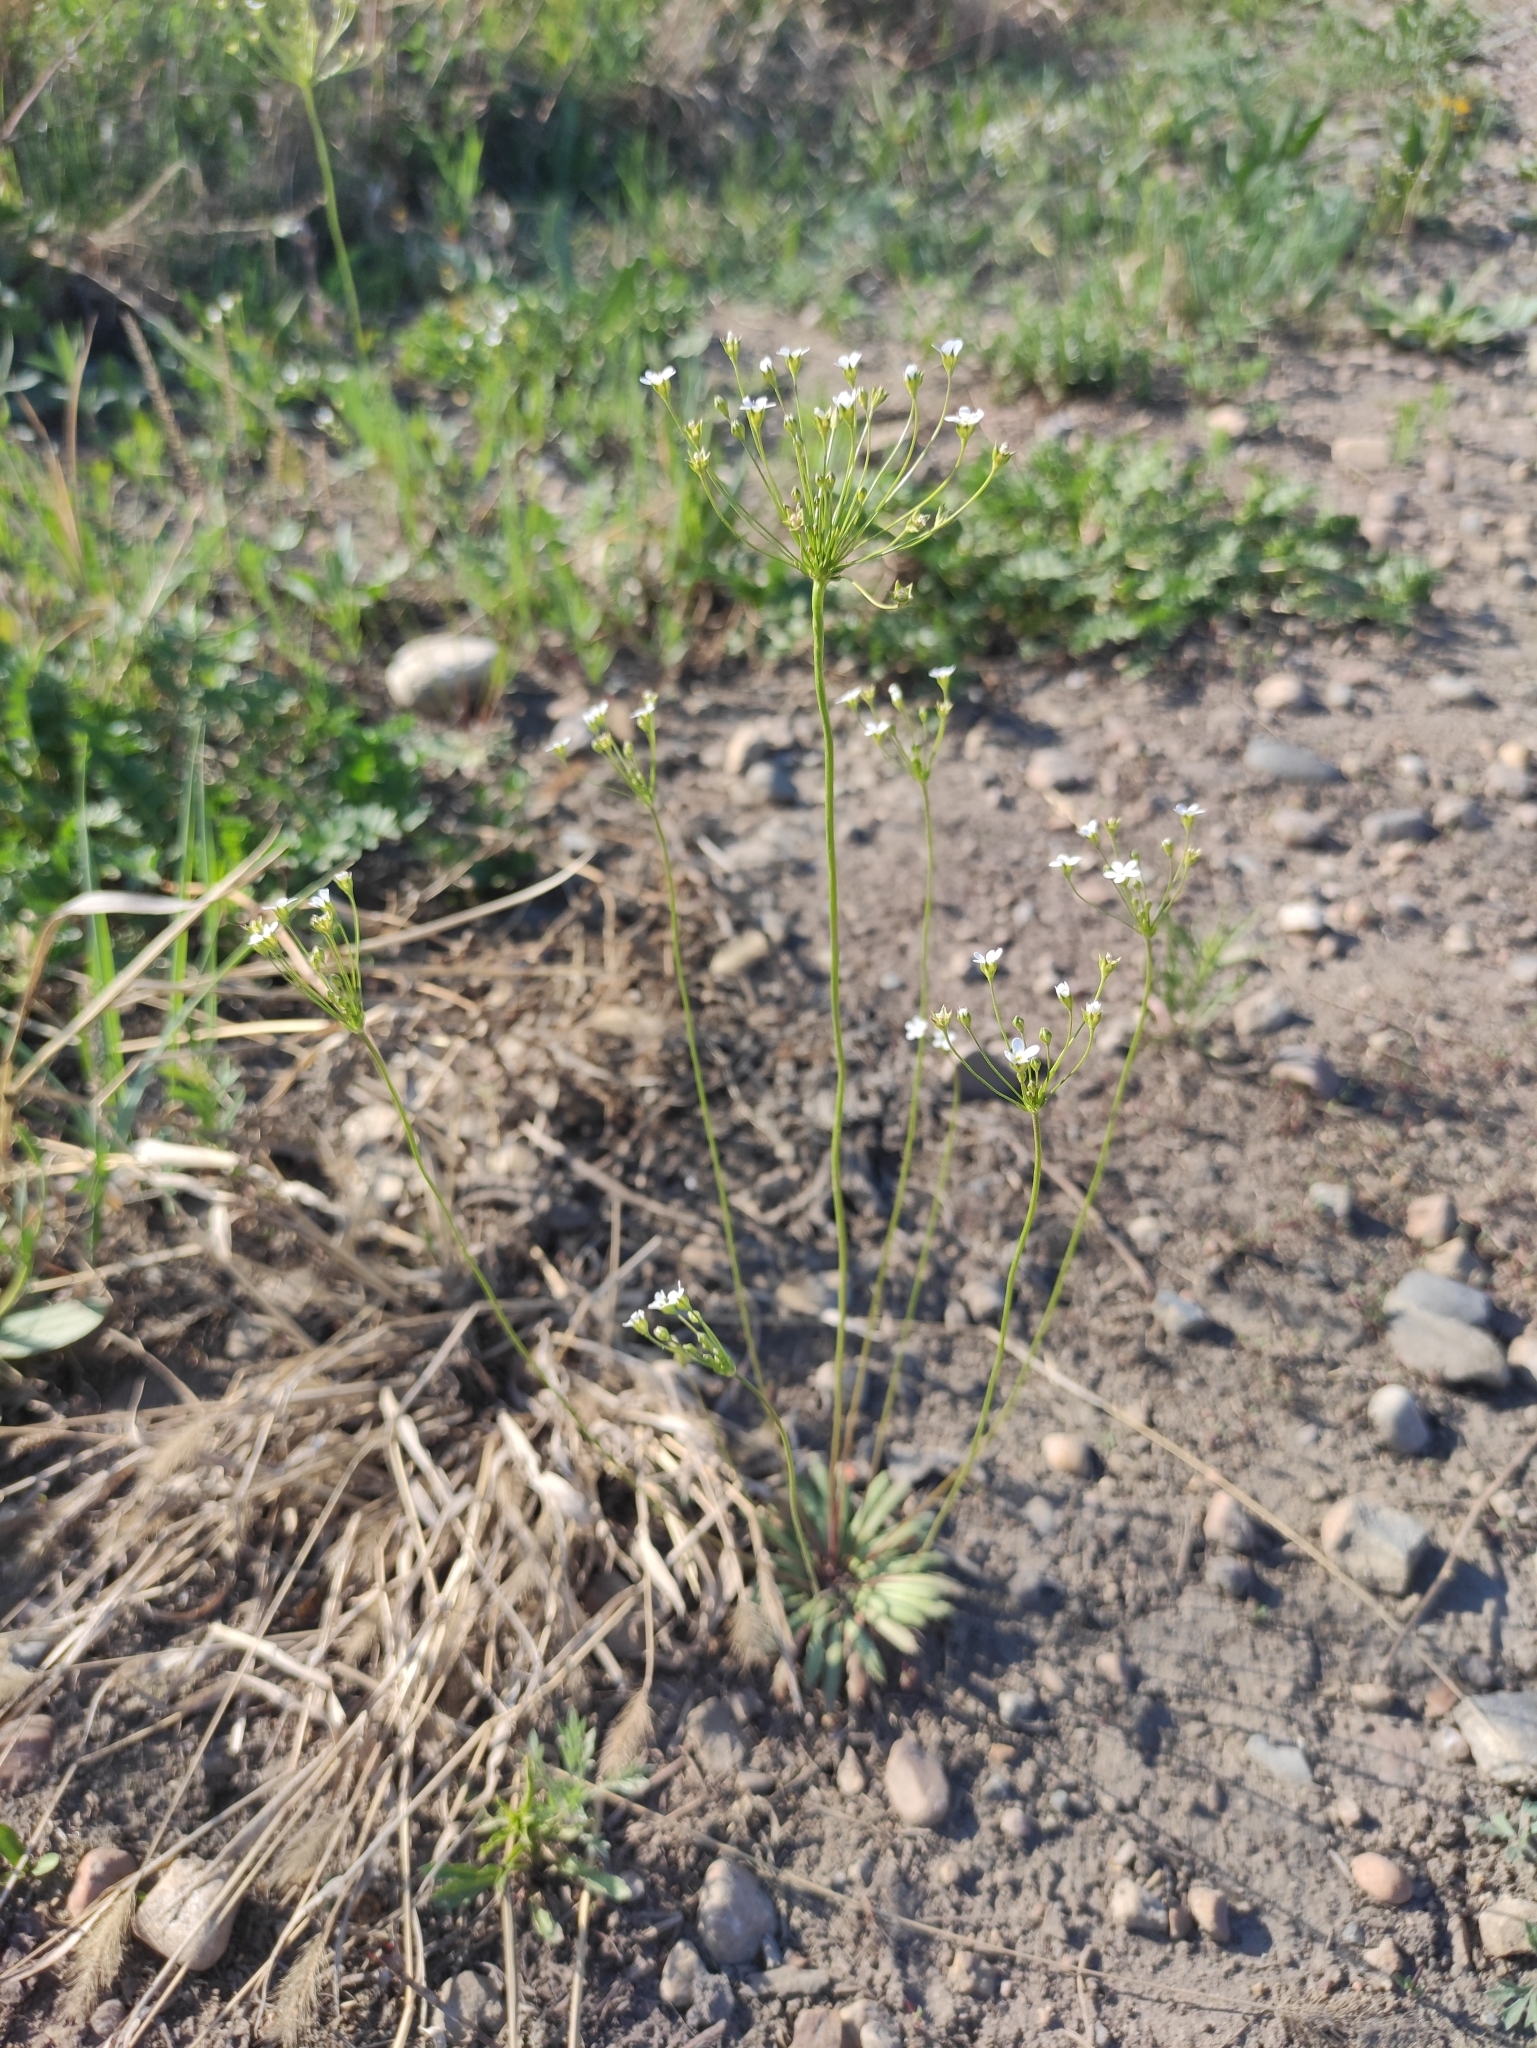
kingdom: Plantae
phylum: Tracheophyta
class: Magnoliopsida
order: Ericales
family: Primulaceae
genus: Androsace
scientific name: Androsace septentrionalis
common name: Hairy northern fairy-candelabra
